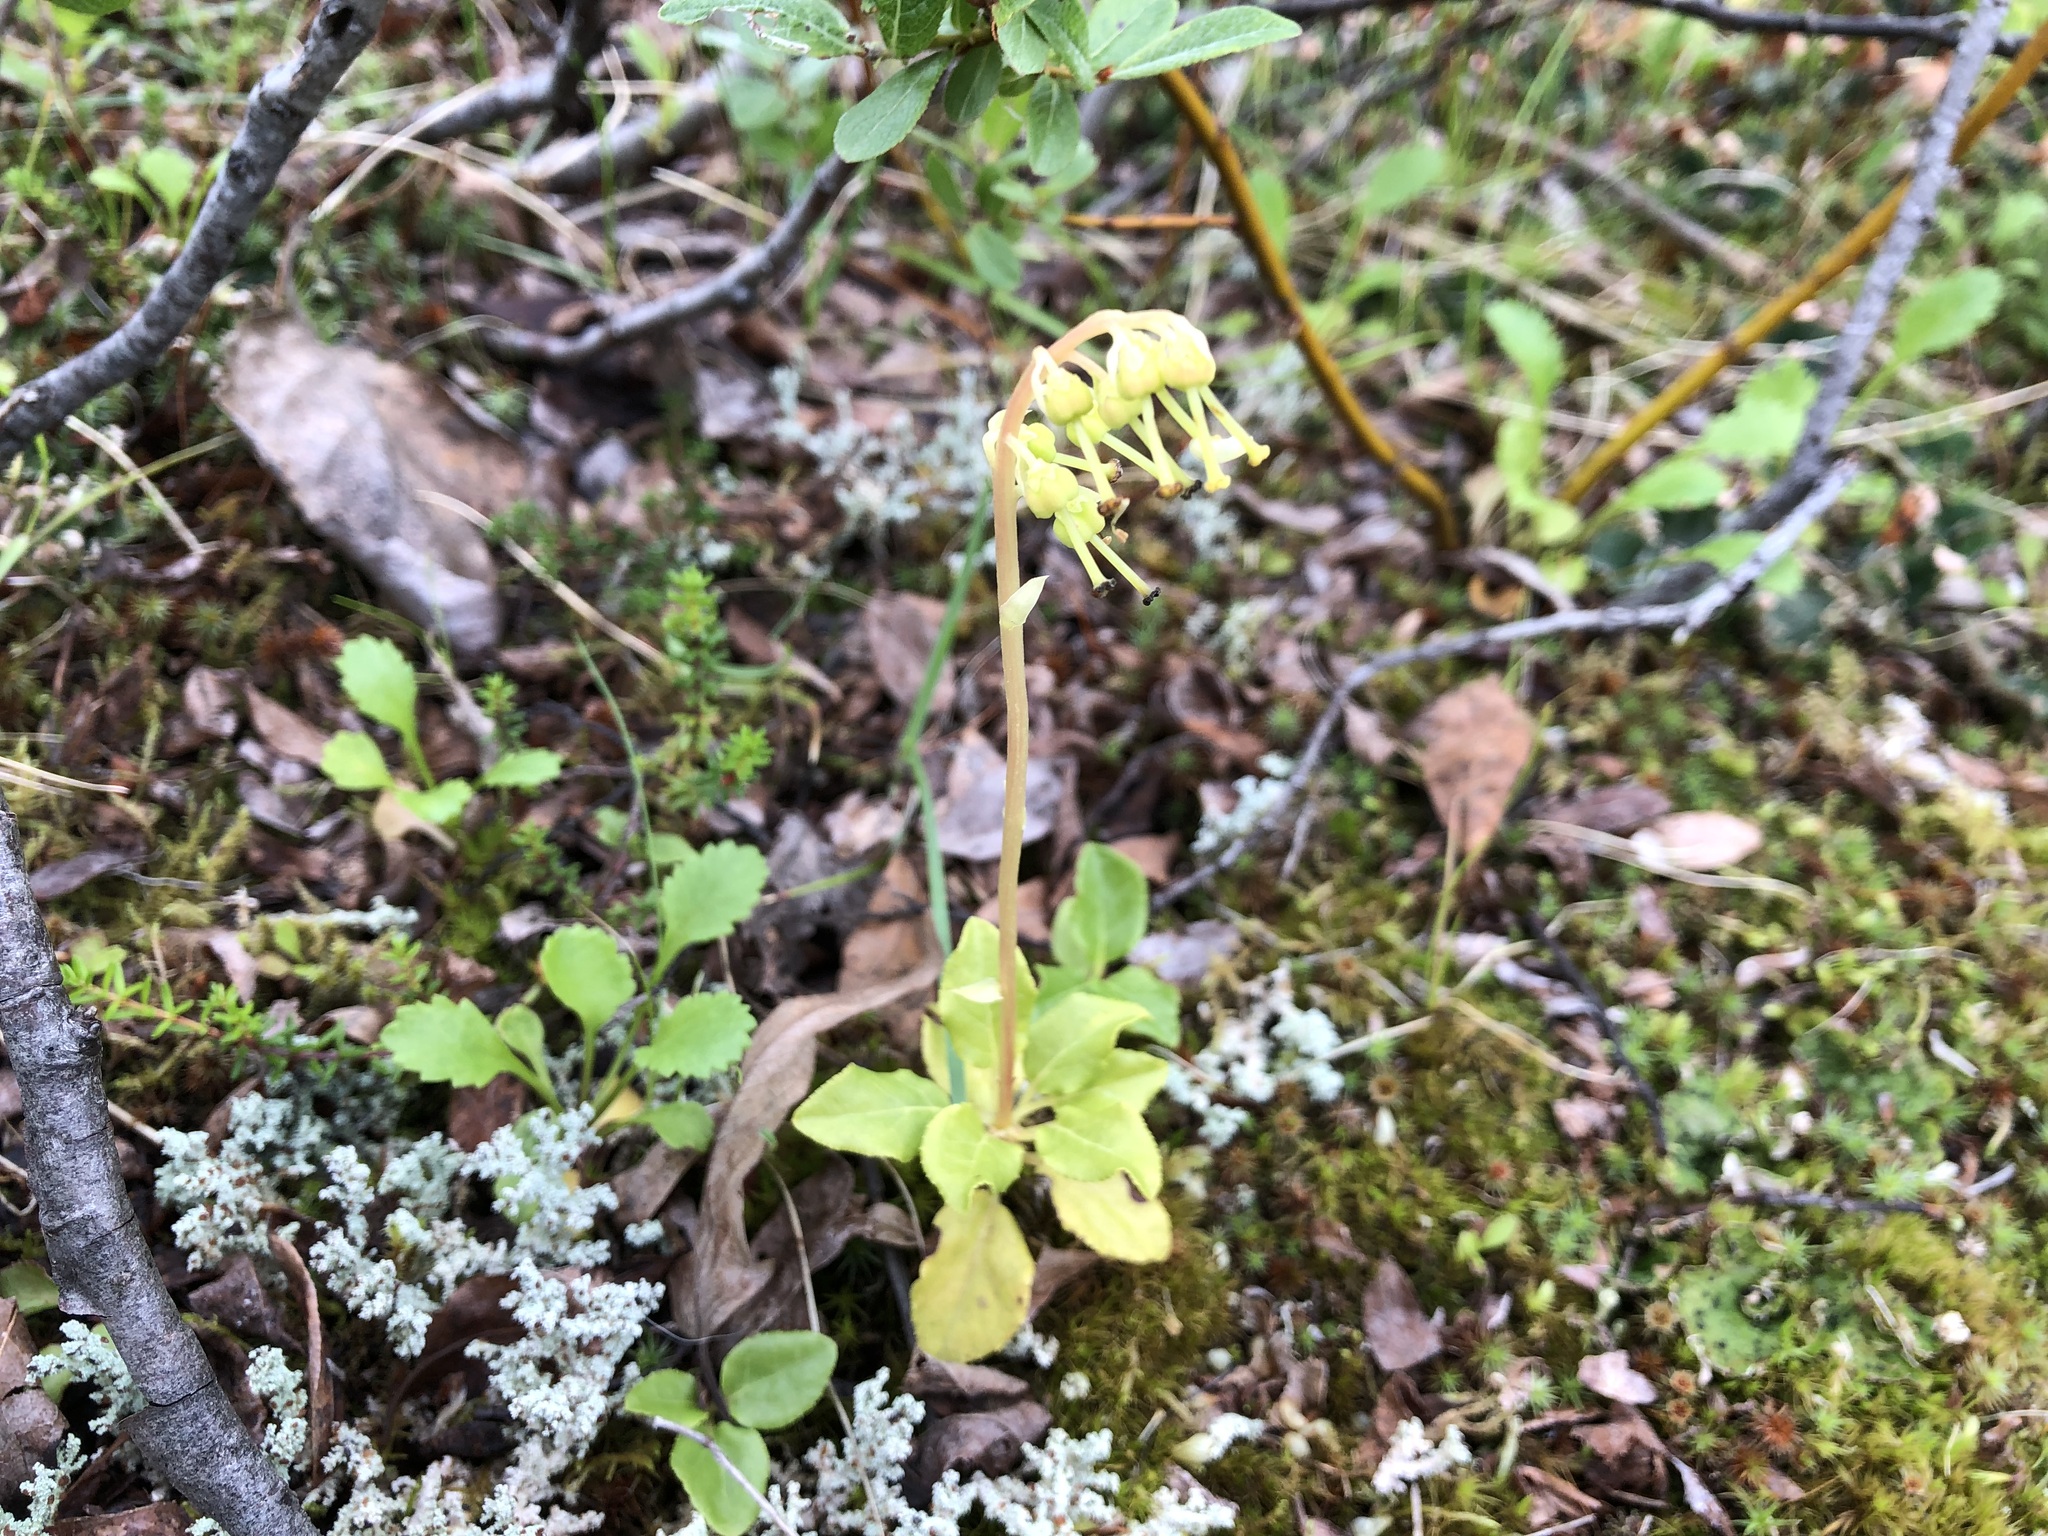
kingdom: Plantae
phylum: Tracheophyta
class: Magnoliopsida
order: Ericales
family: Ericaceae
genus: Orthilia
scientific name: Orthilia secunda
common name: One-sided orthilia
